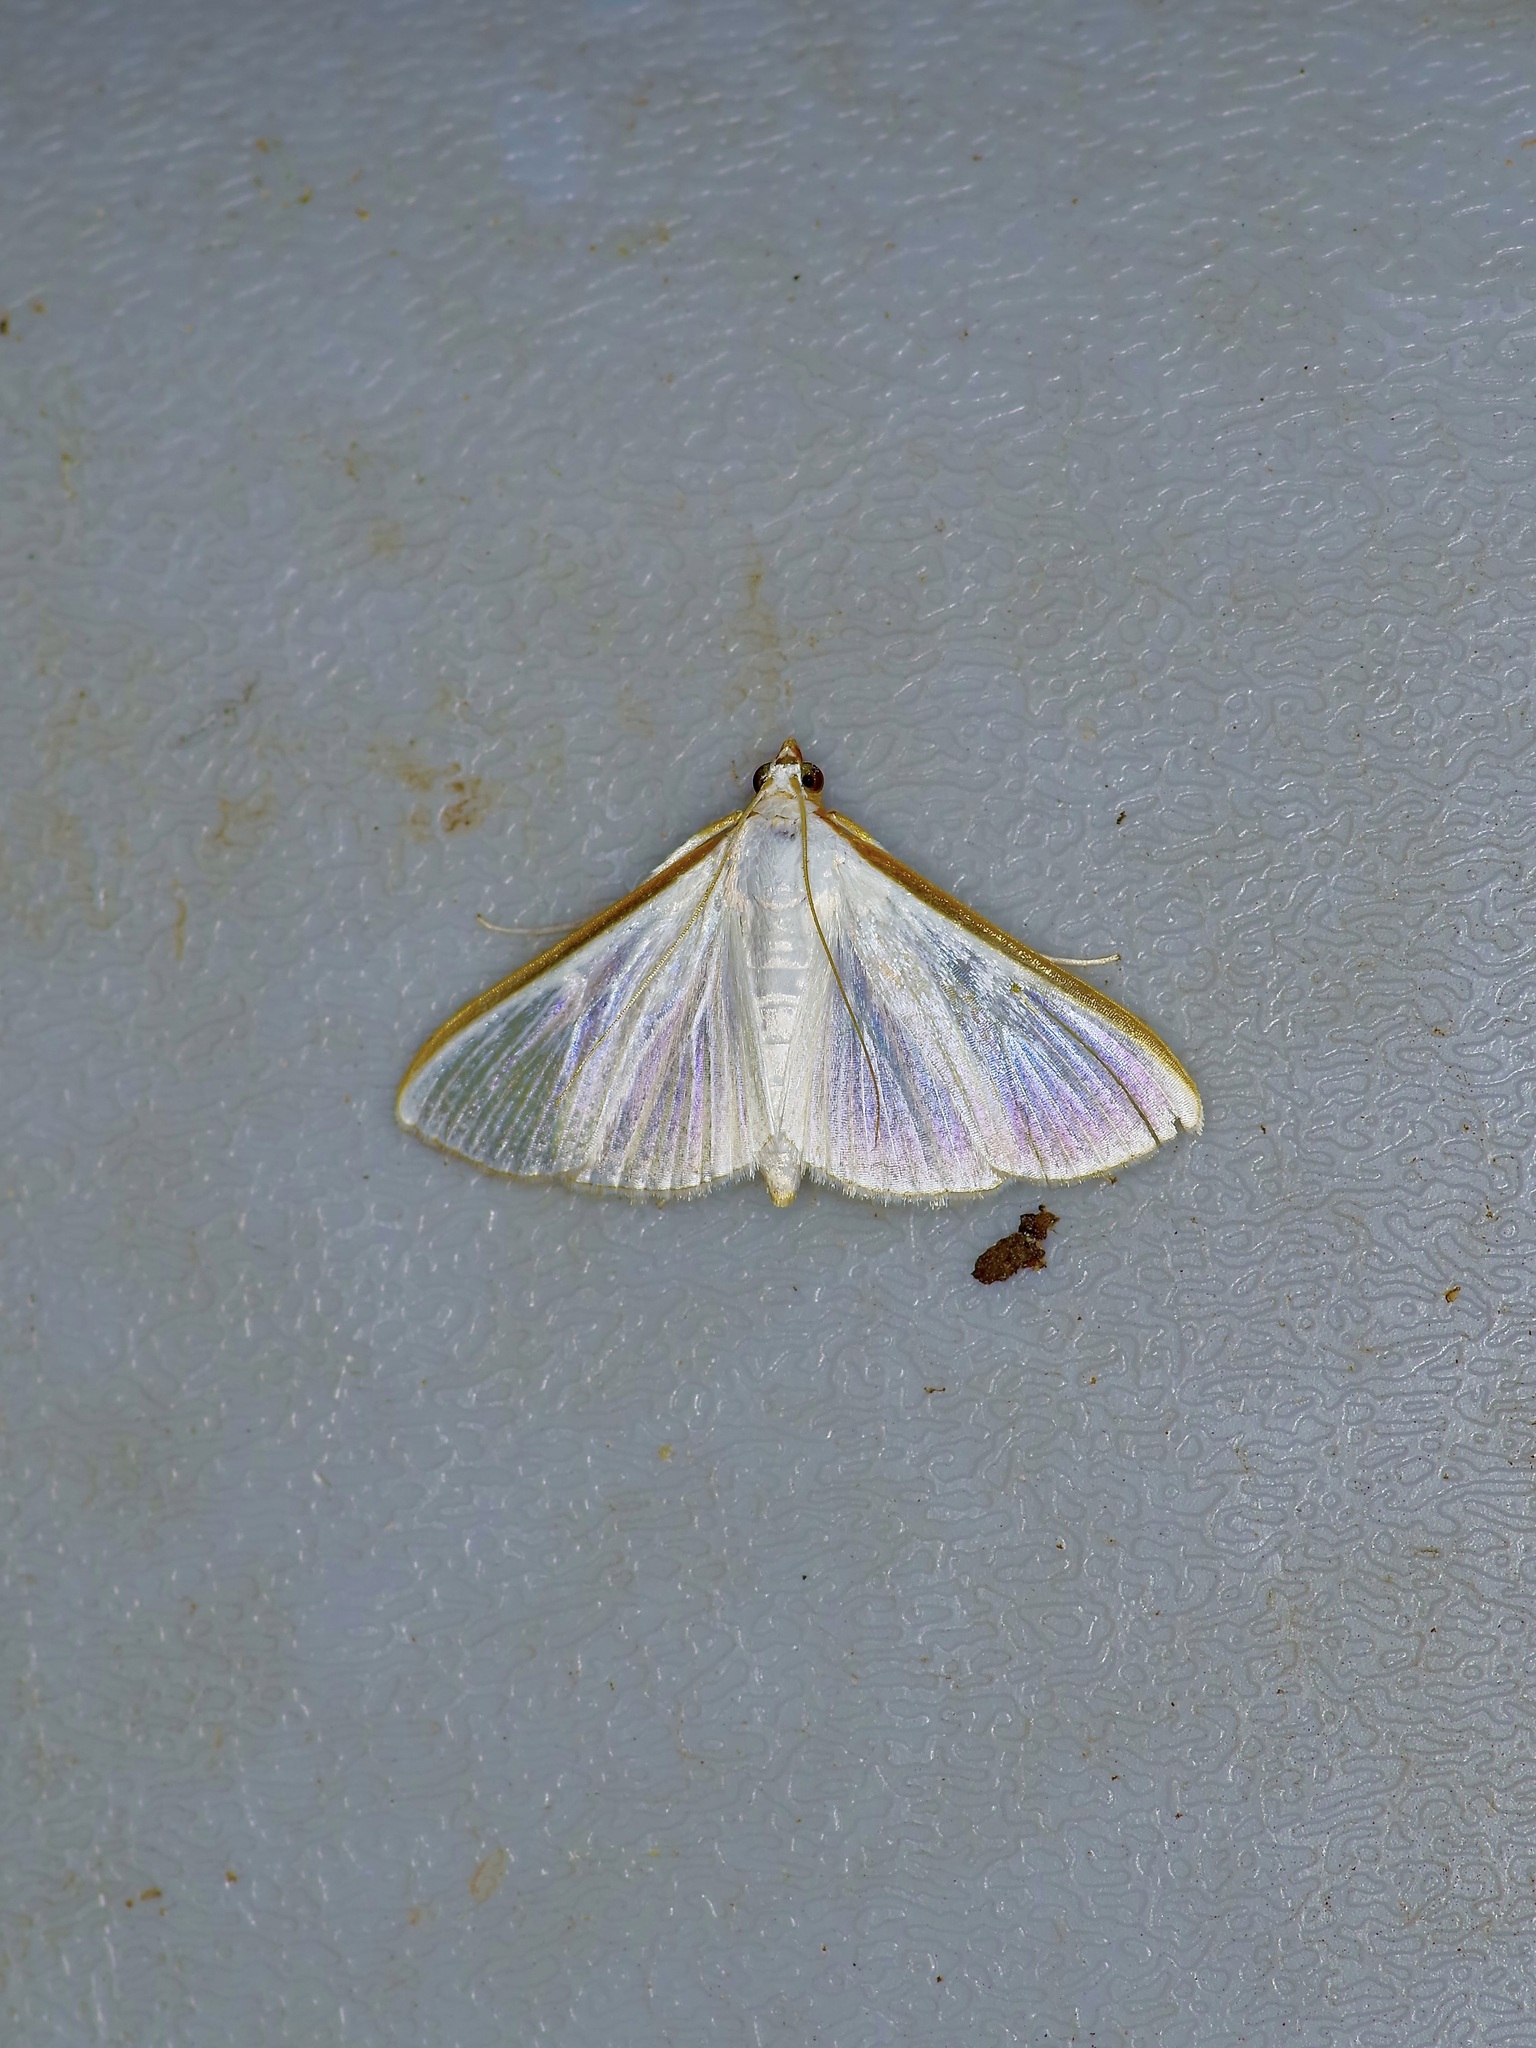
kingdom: Animalia
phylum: Arthropoda
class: Insecta
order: Lepidoptera
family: Crambidae
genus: Diaphania
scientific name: Diaphania costata
